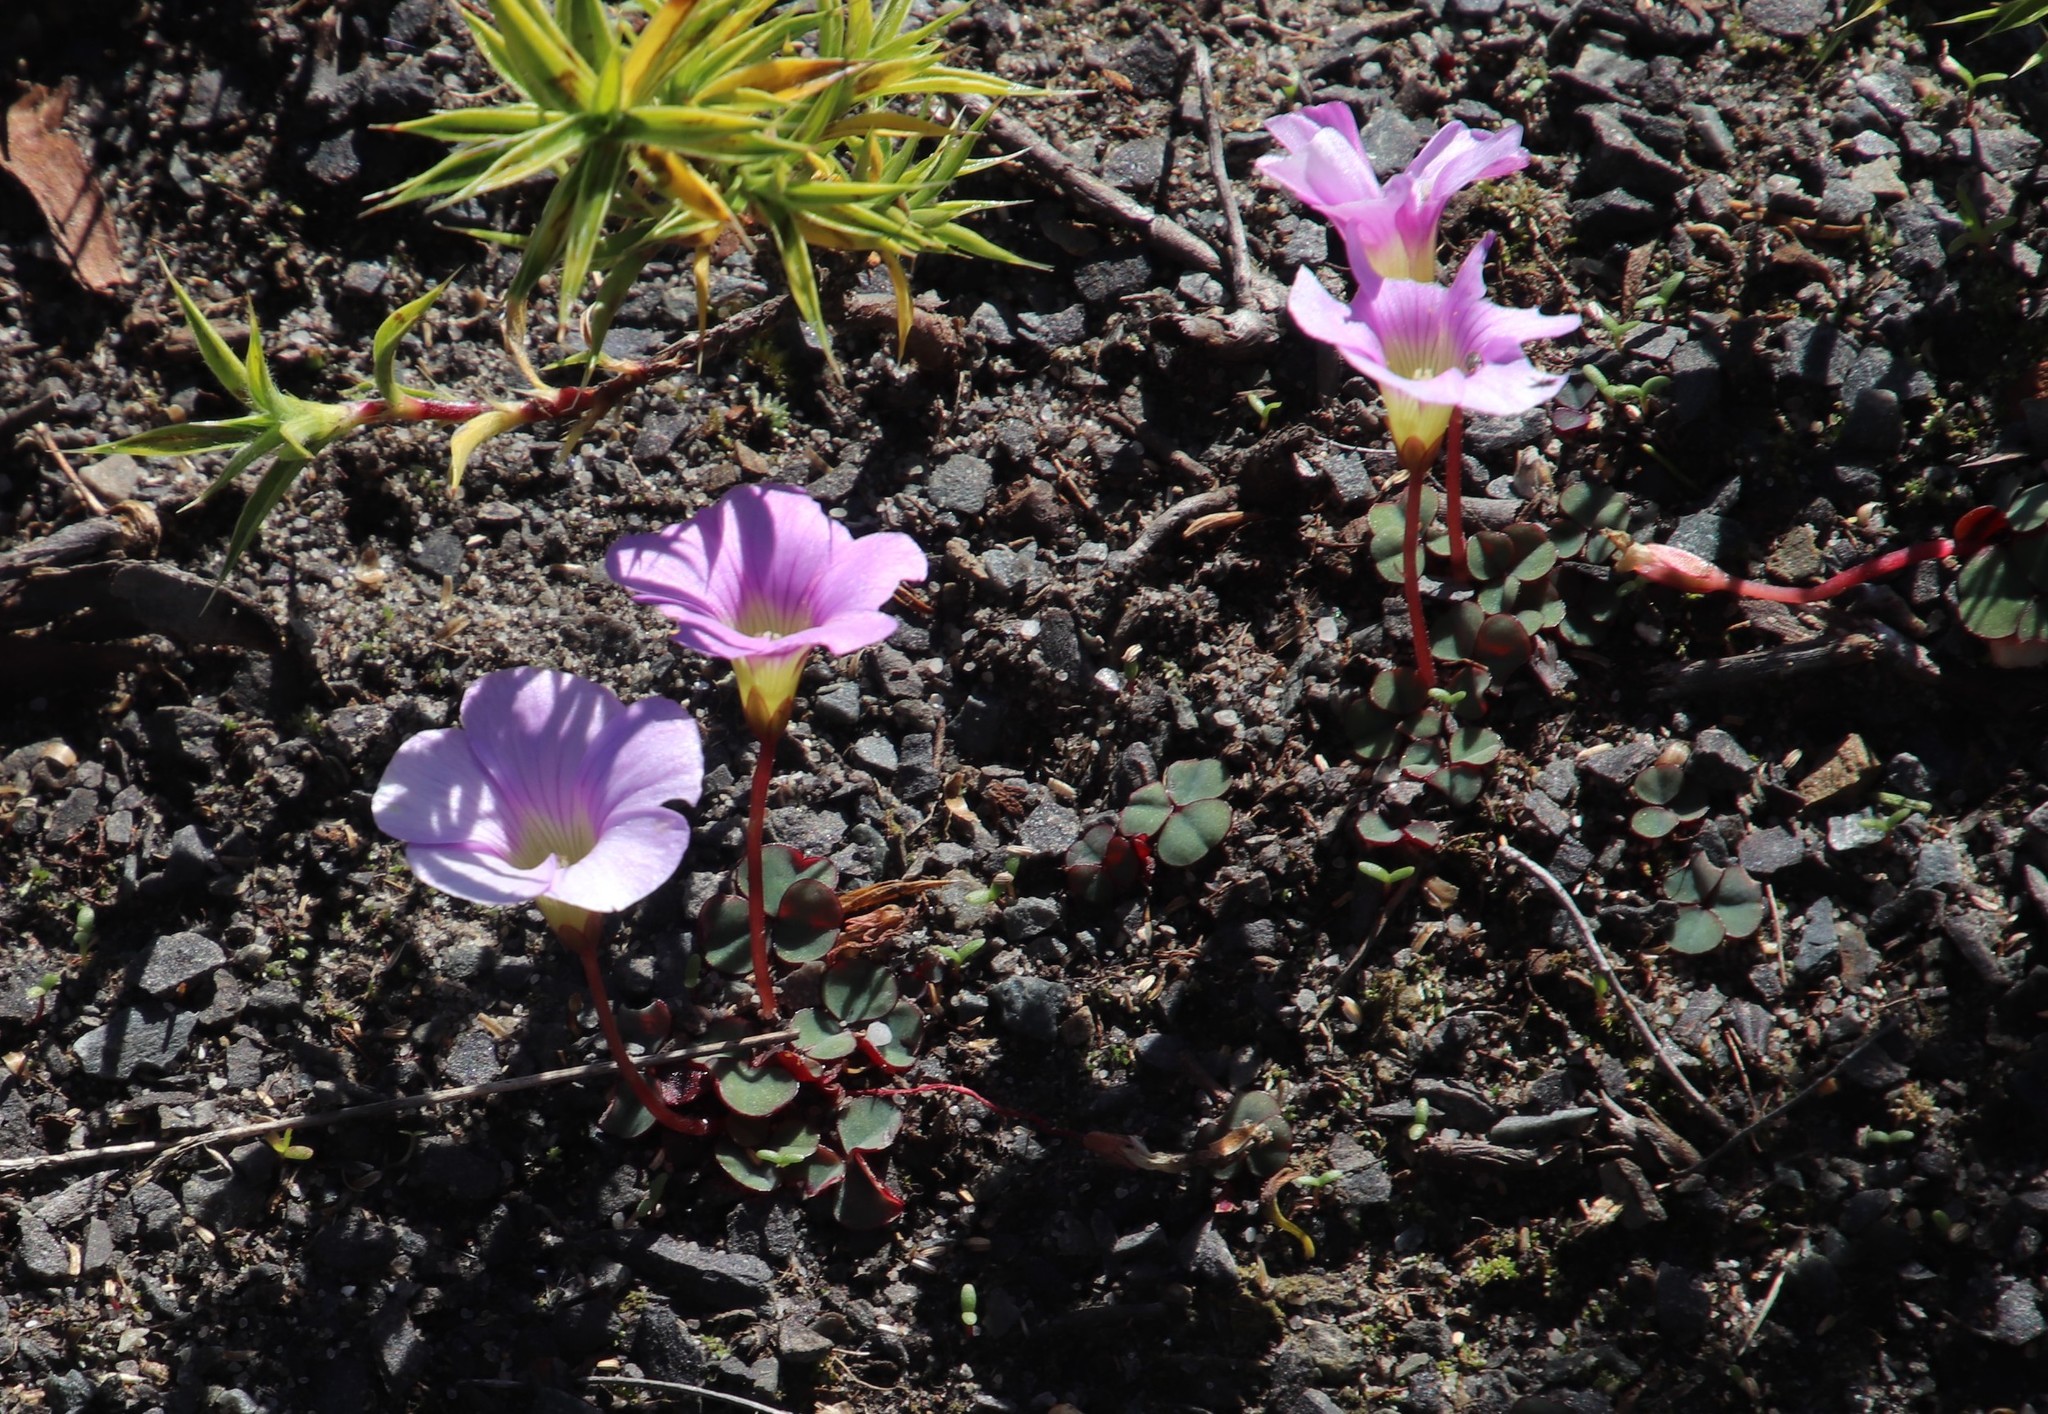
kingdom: Plantae
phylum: Tracheophyta
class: Magnoliopsida
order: Oxalidales
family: Oxalidaceae
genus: Oxalis
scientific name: Oxalis commutata
